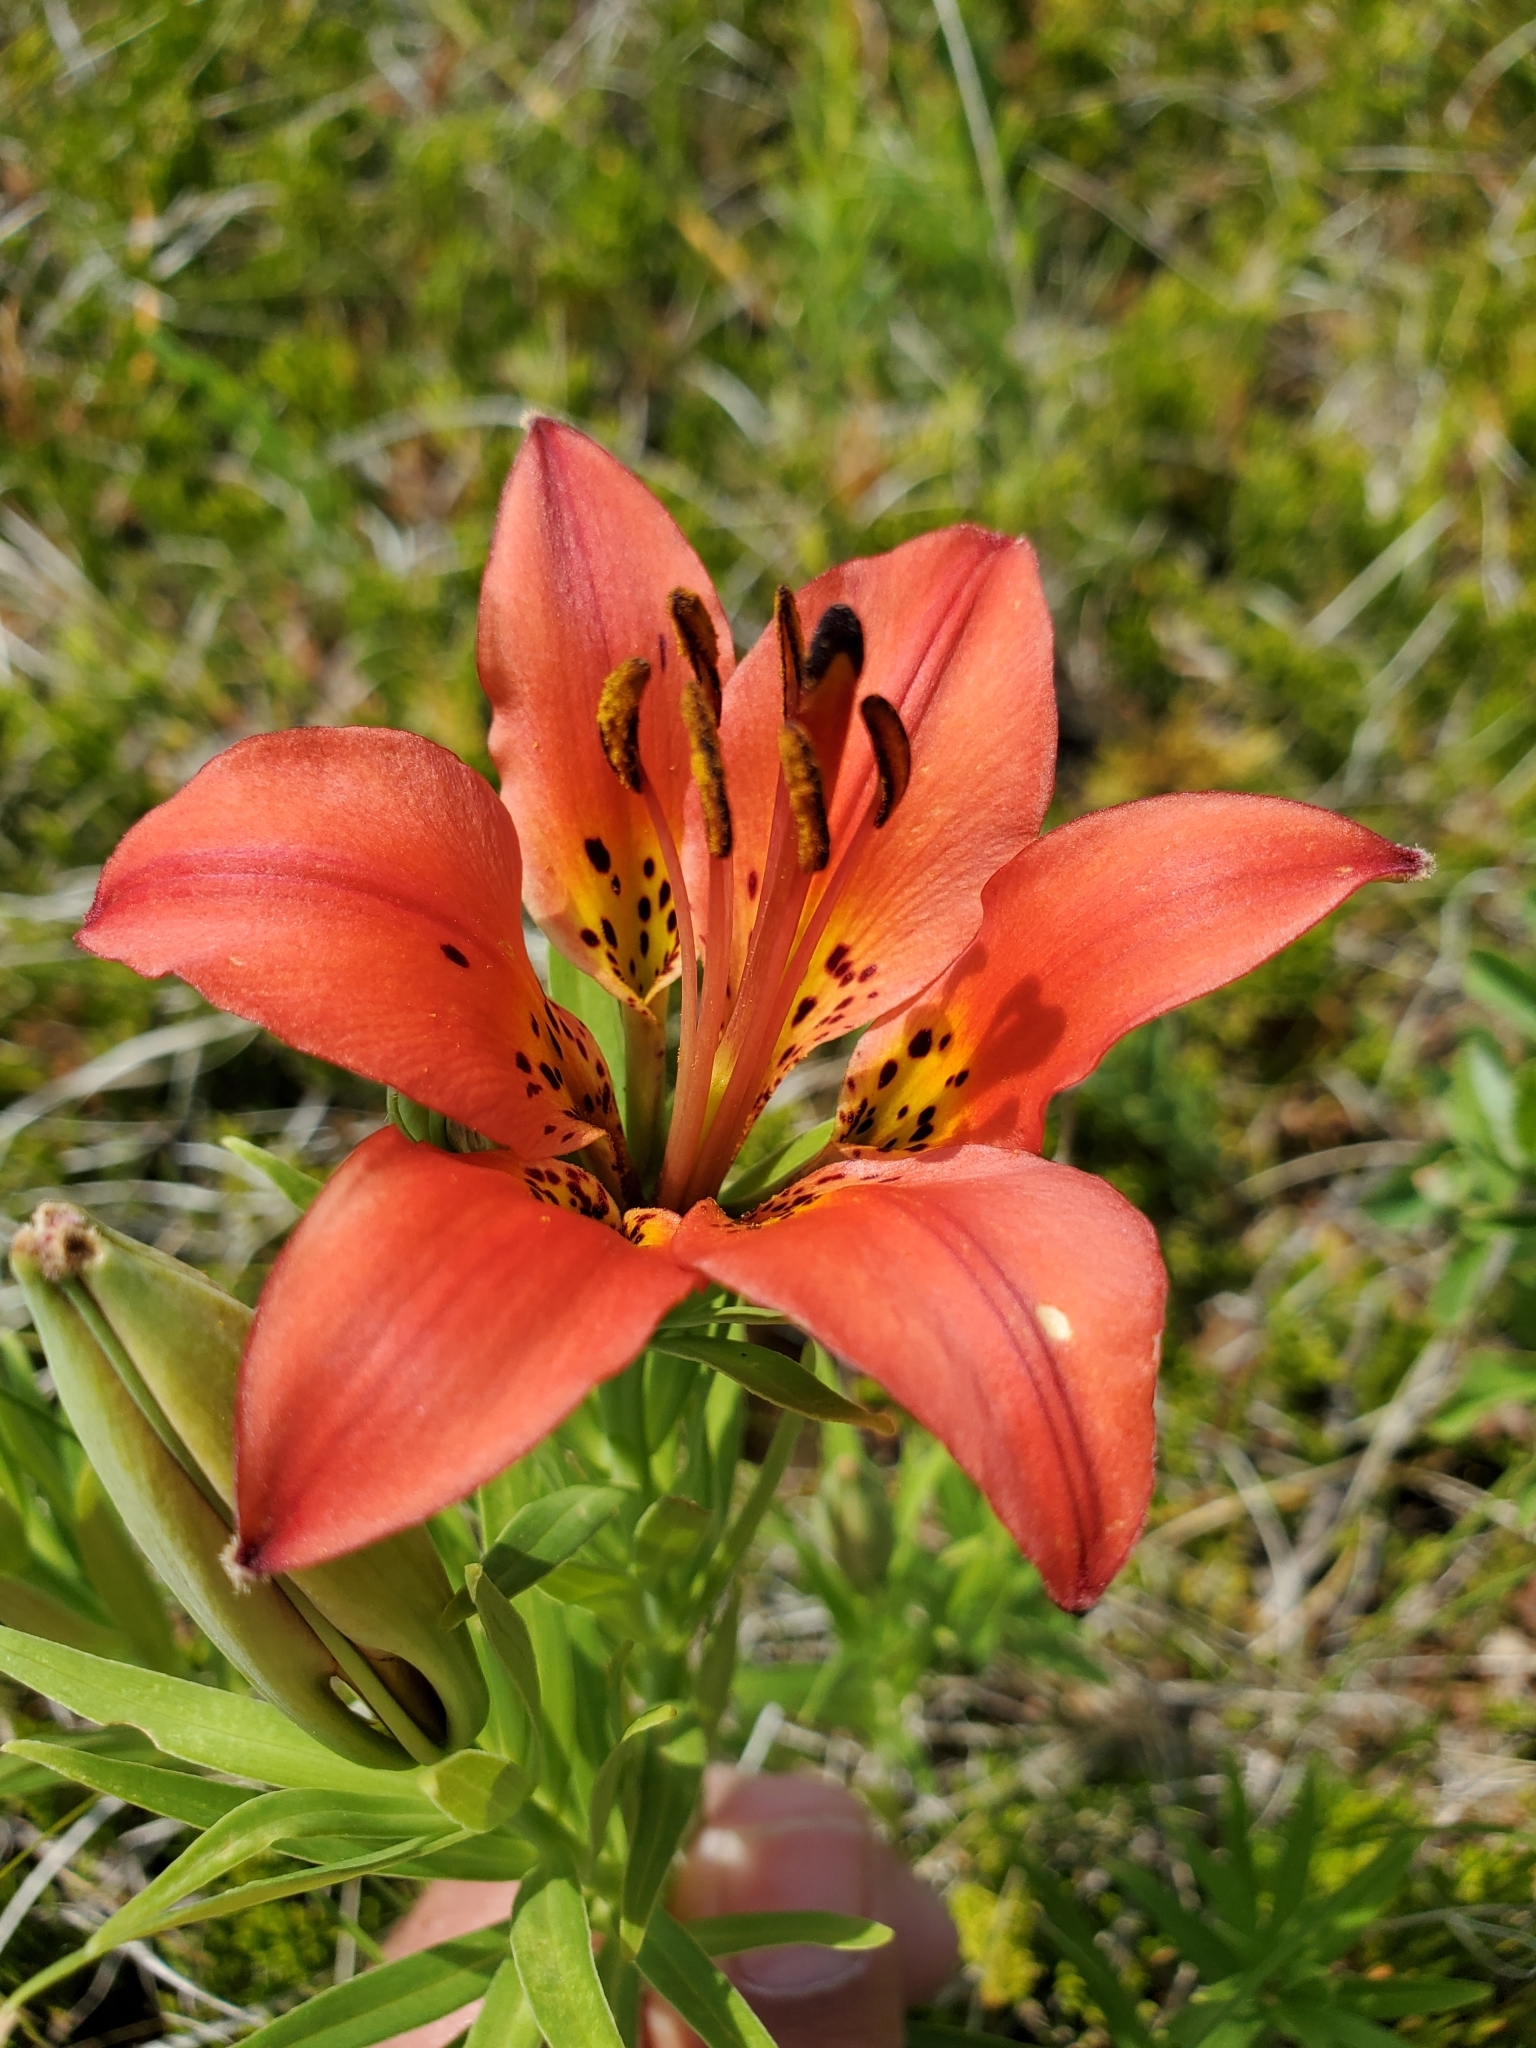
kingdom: Plantae
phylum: Tracheophyta
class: Liliopsida
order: Liliales
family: Liliaceae
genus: Lilium
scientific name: Lilium philadelphicum
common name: Red lily
